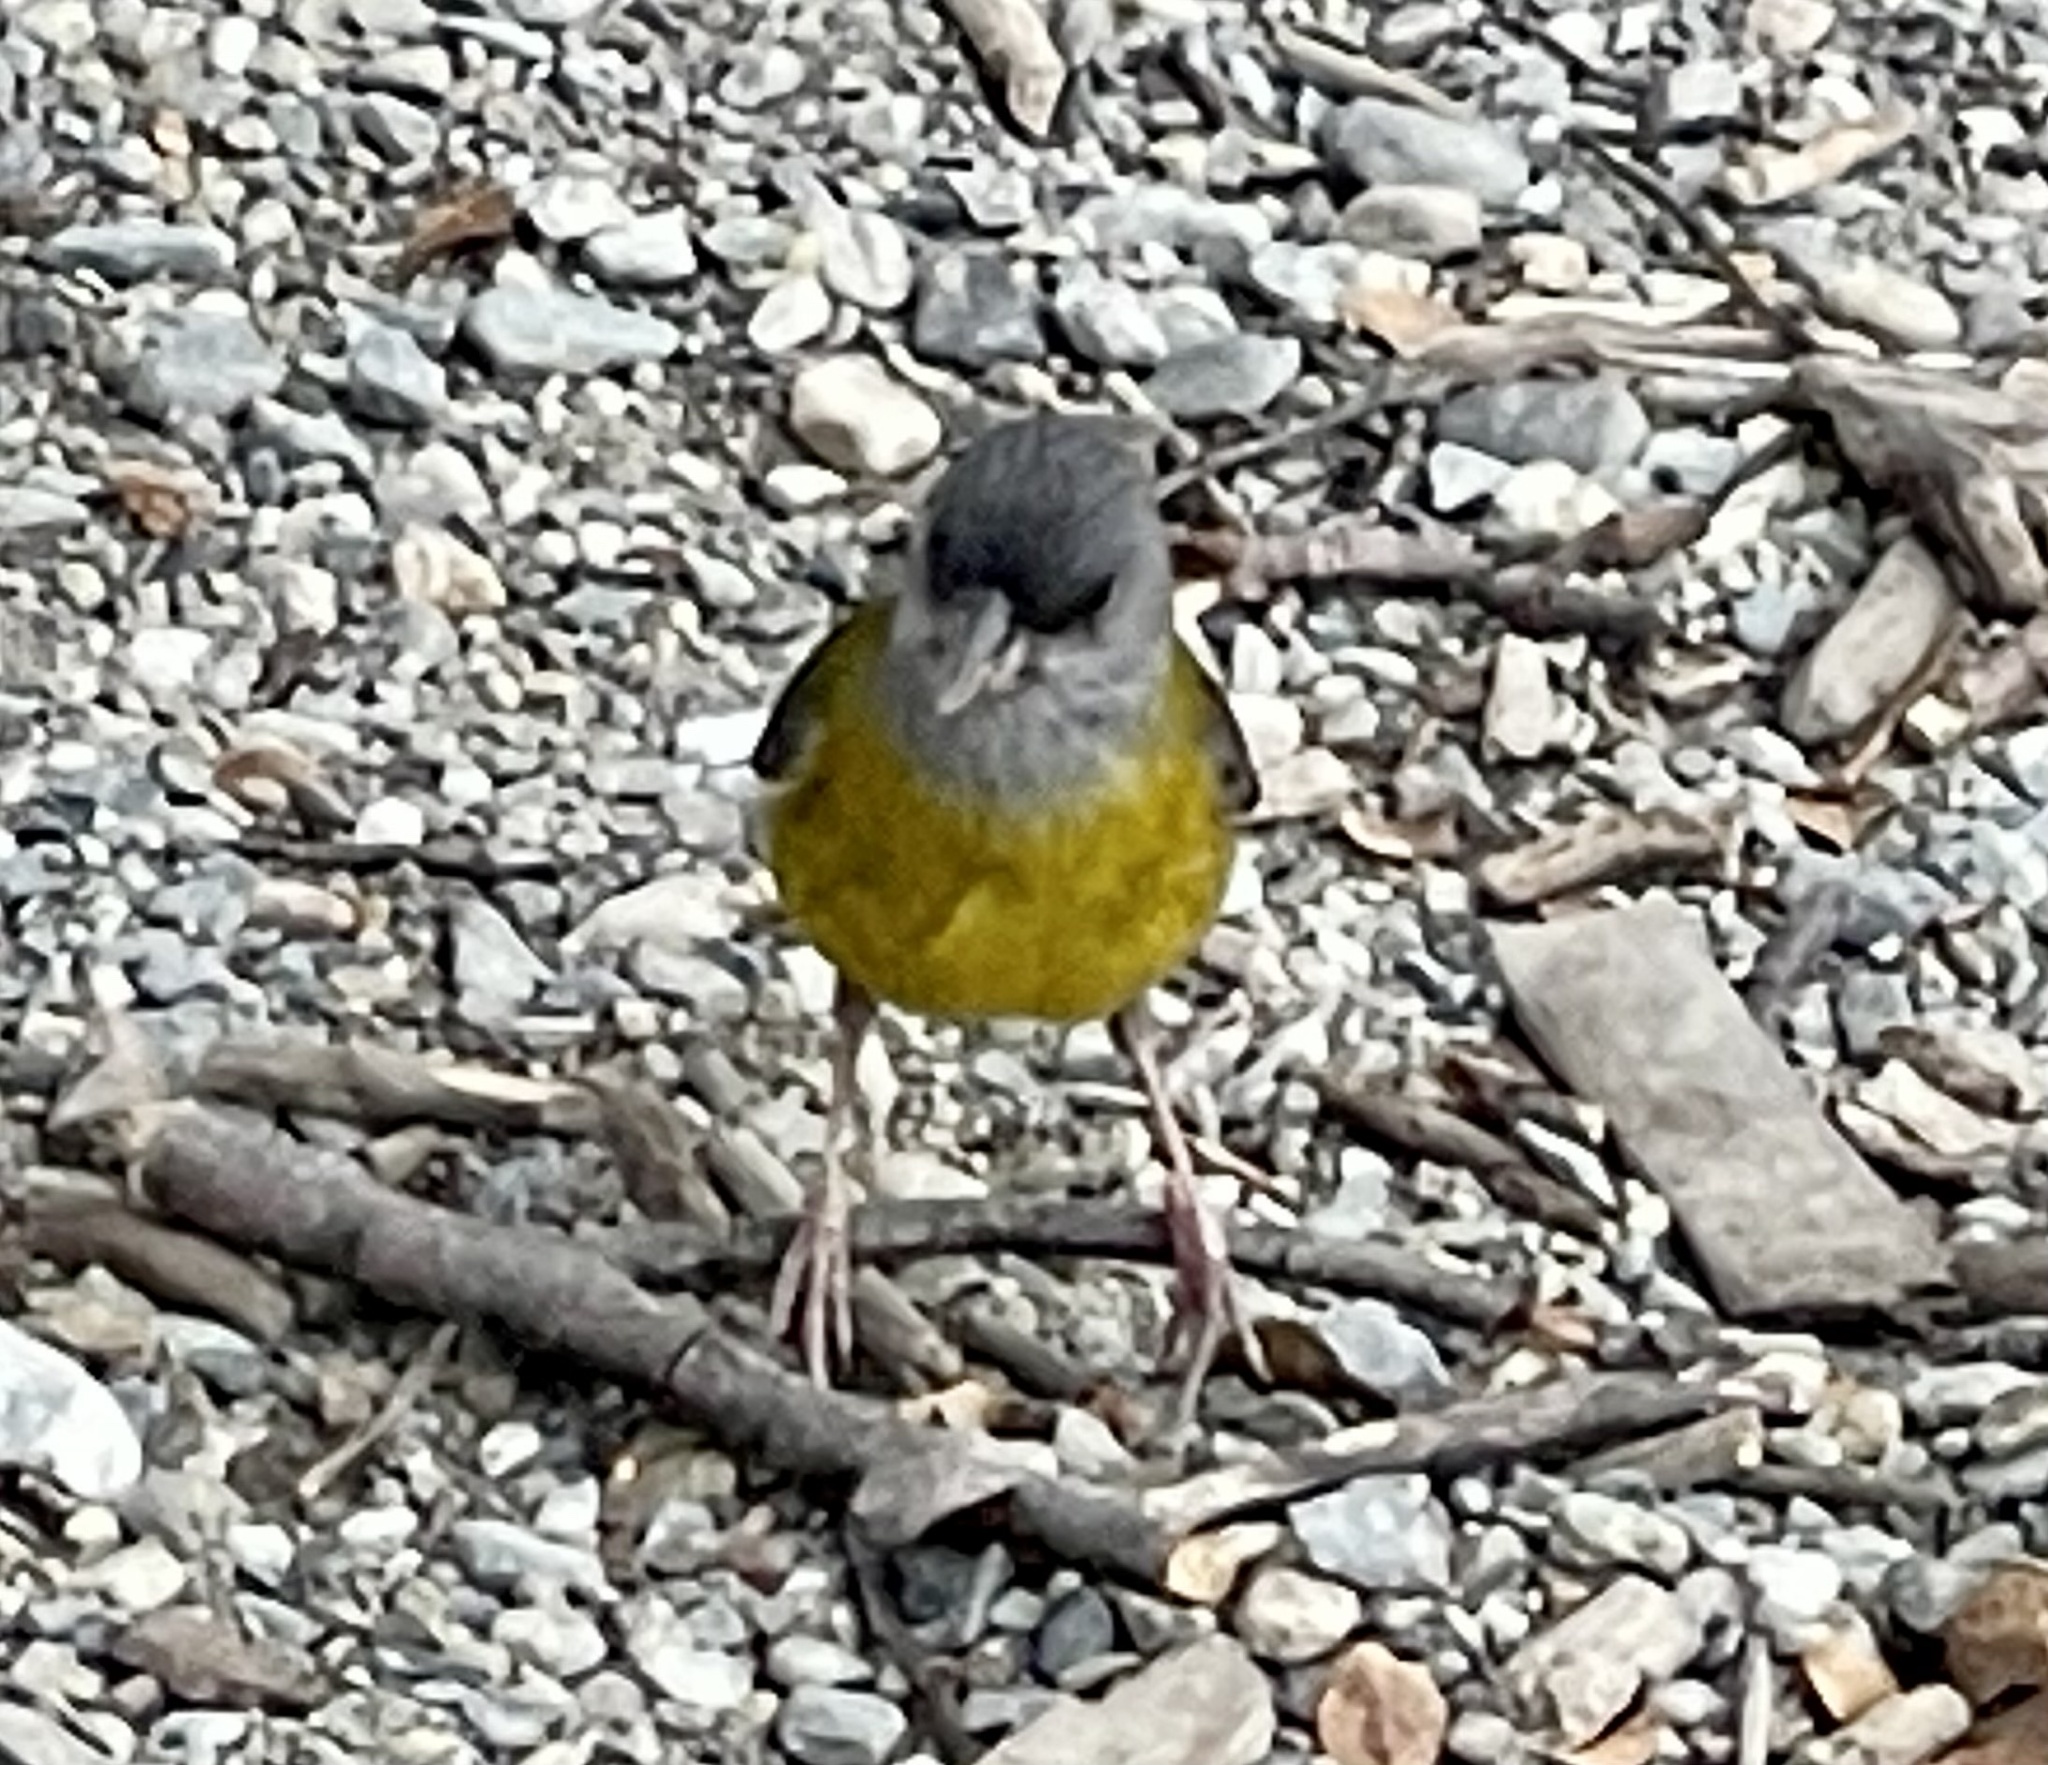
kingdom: Animalia
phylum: Chordata
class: Aves
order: Passeriformes
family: Thraupidae
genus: Phrygilus
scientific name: Phrygilus patagonicus
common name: Patagonian sierra finch
